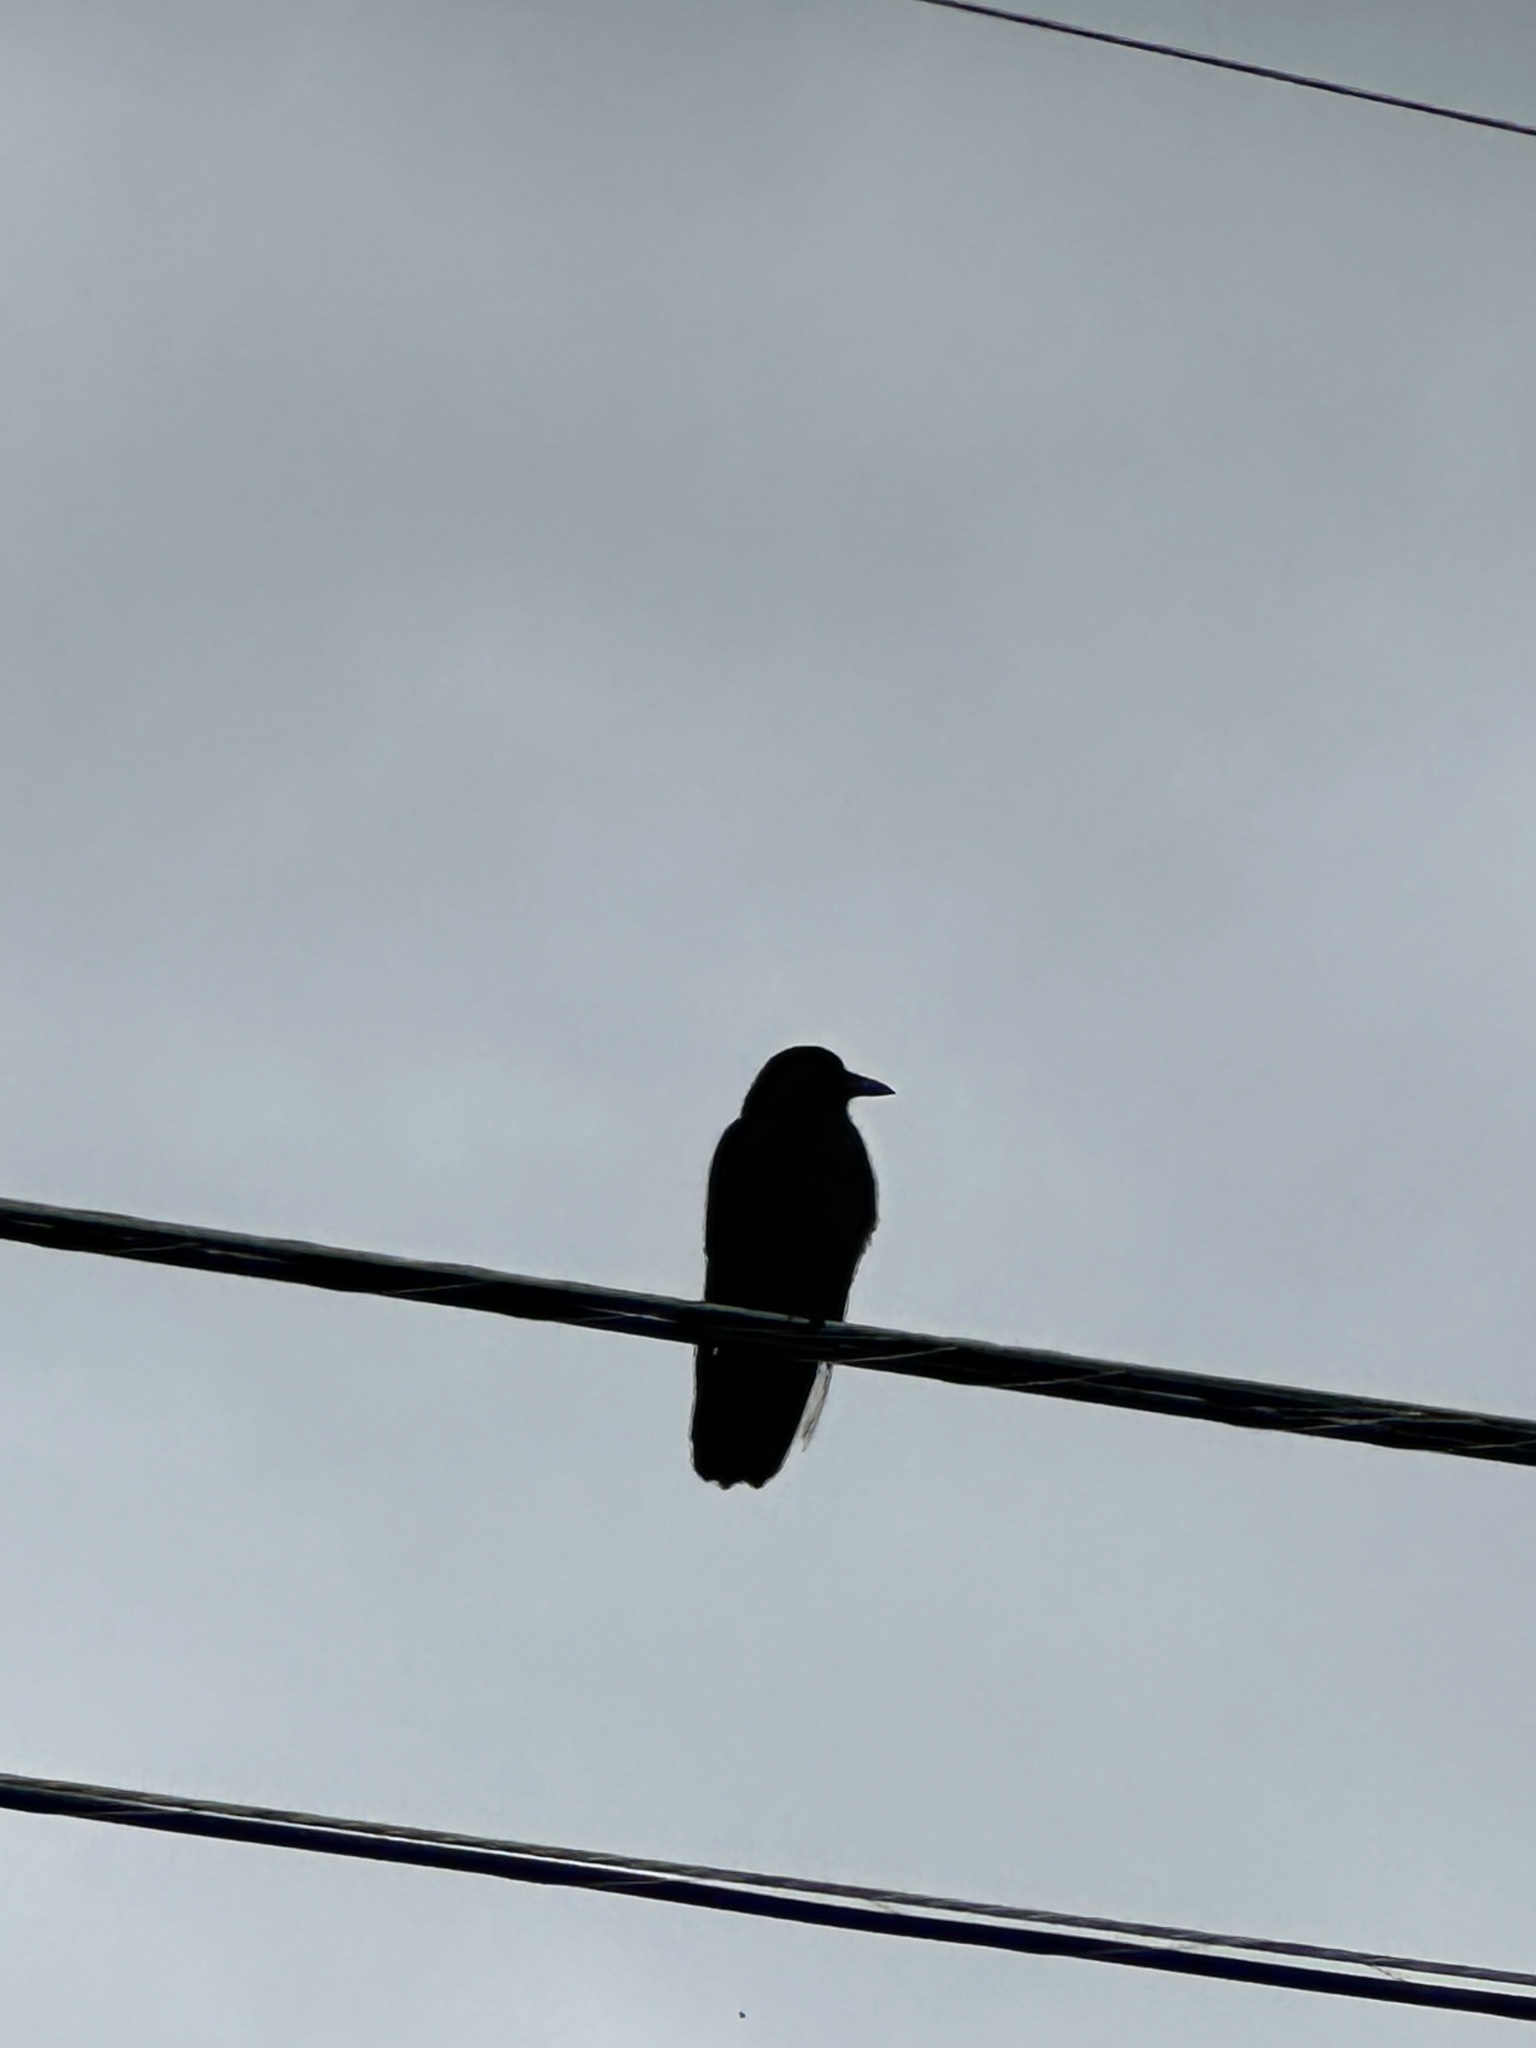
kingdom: Animalia
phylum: Chordata
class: Aves
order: Passeriformes
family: Corvidae
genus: Corvus
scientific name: Corvus brachyrhynchos
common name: American crow
